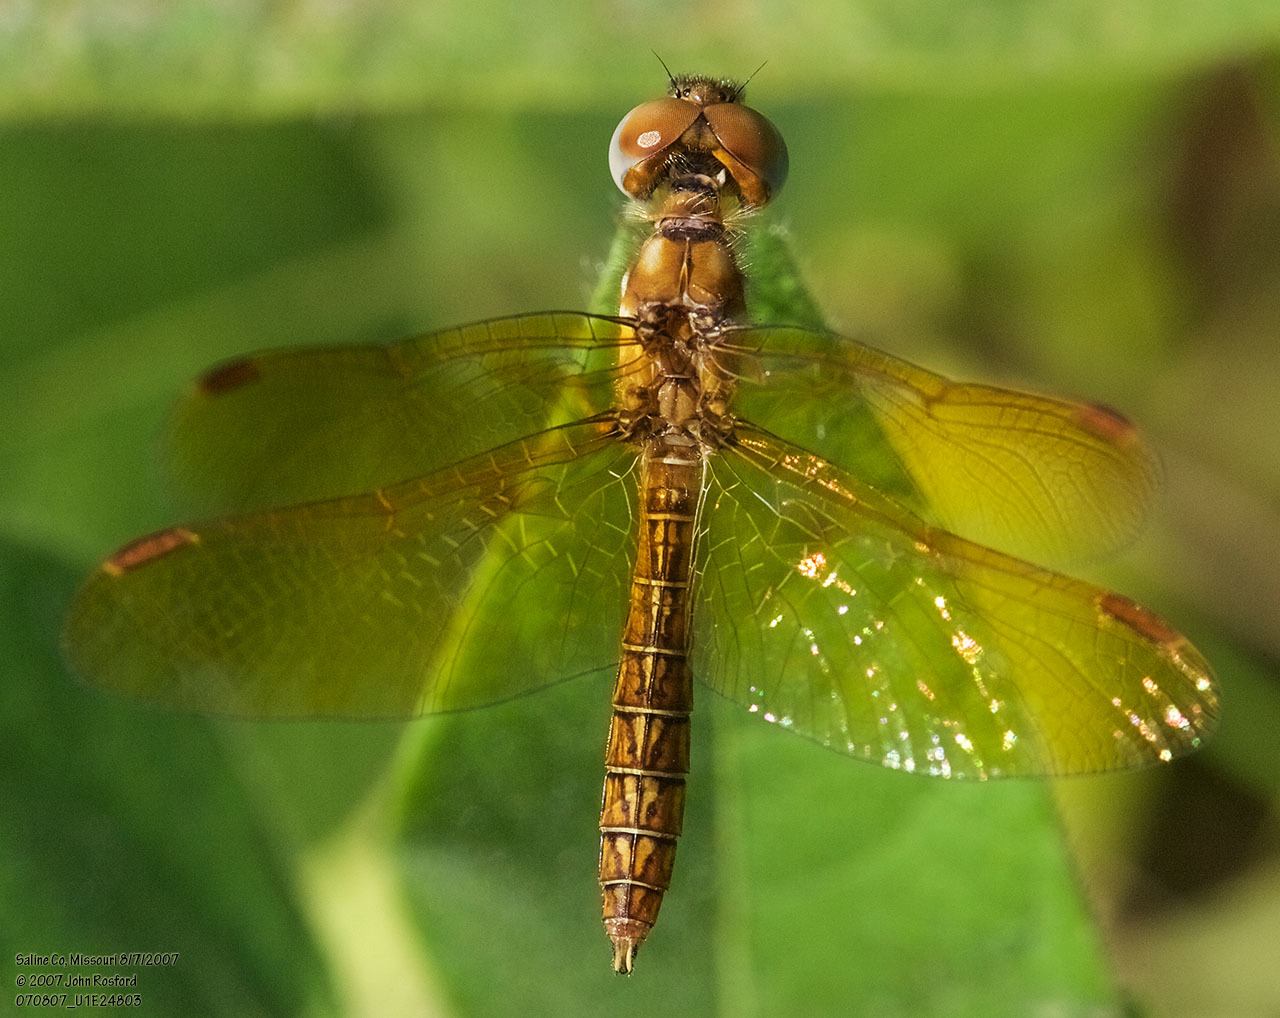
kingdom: Animalia
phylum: Arthropoda
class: Insecta
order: Odonata
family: Libellulidae
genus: Perithemis
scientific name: Perithemis tenera
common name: Eastern amberwing
